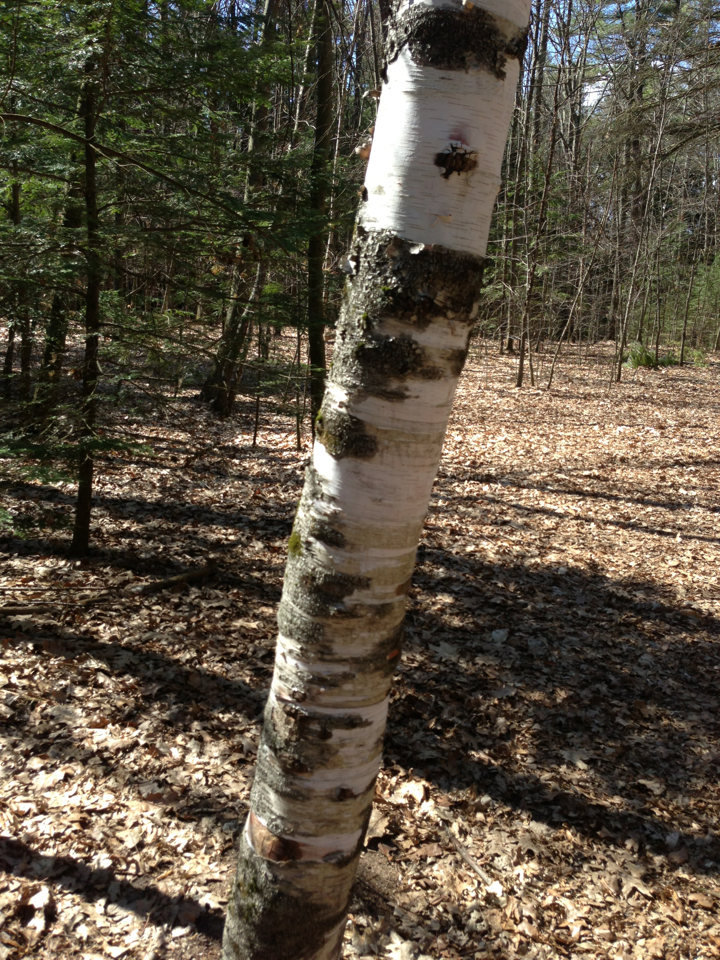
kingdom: Plantae
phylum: Tracheophyta
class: Magnoliopsida
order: Fagales
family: Betulaceae
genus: Betula
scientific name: Betula papyrifera
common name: Paper birch
